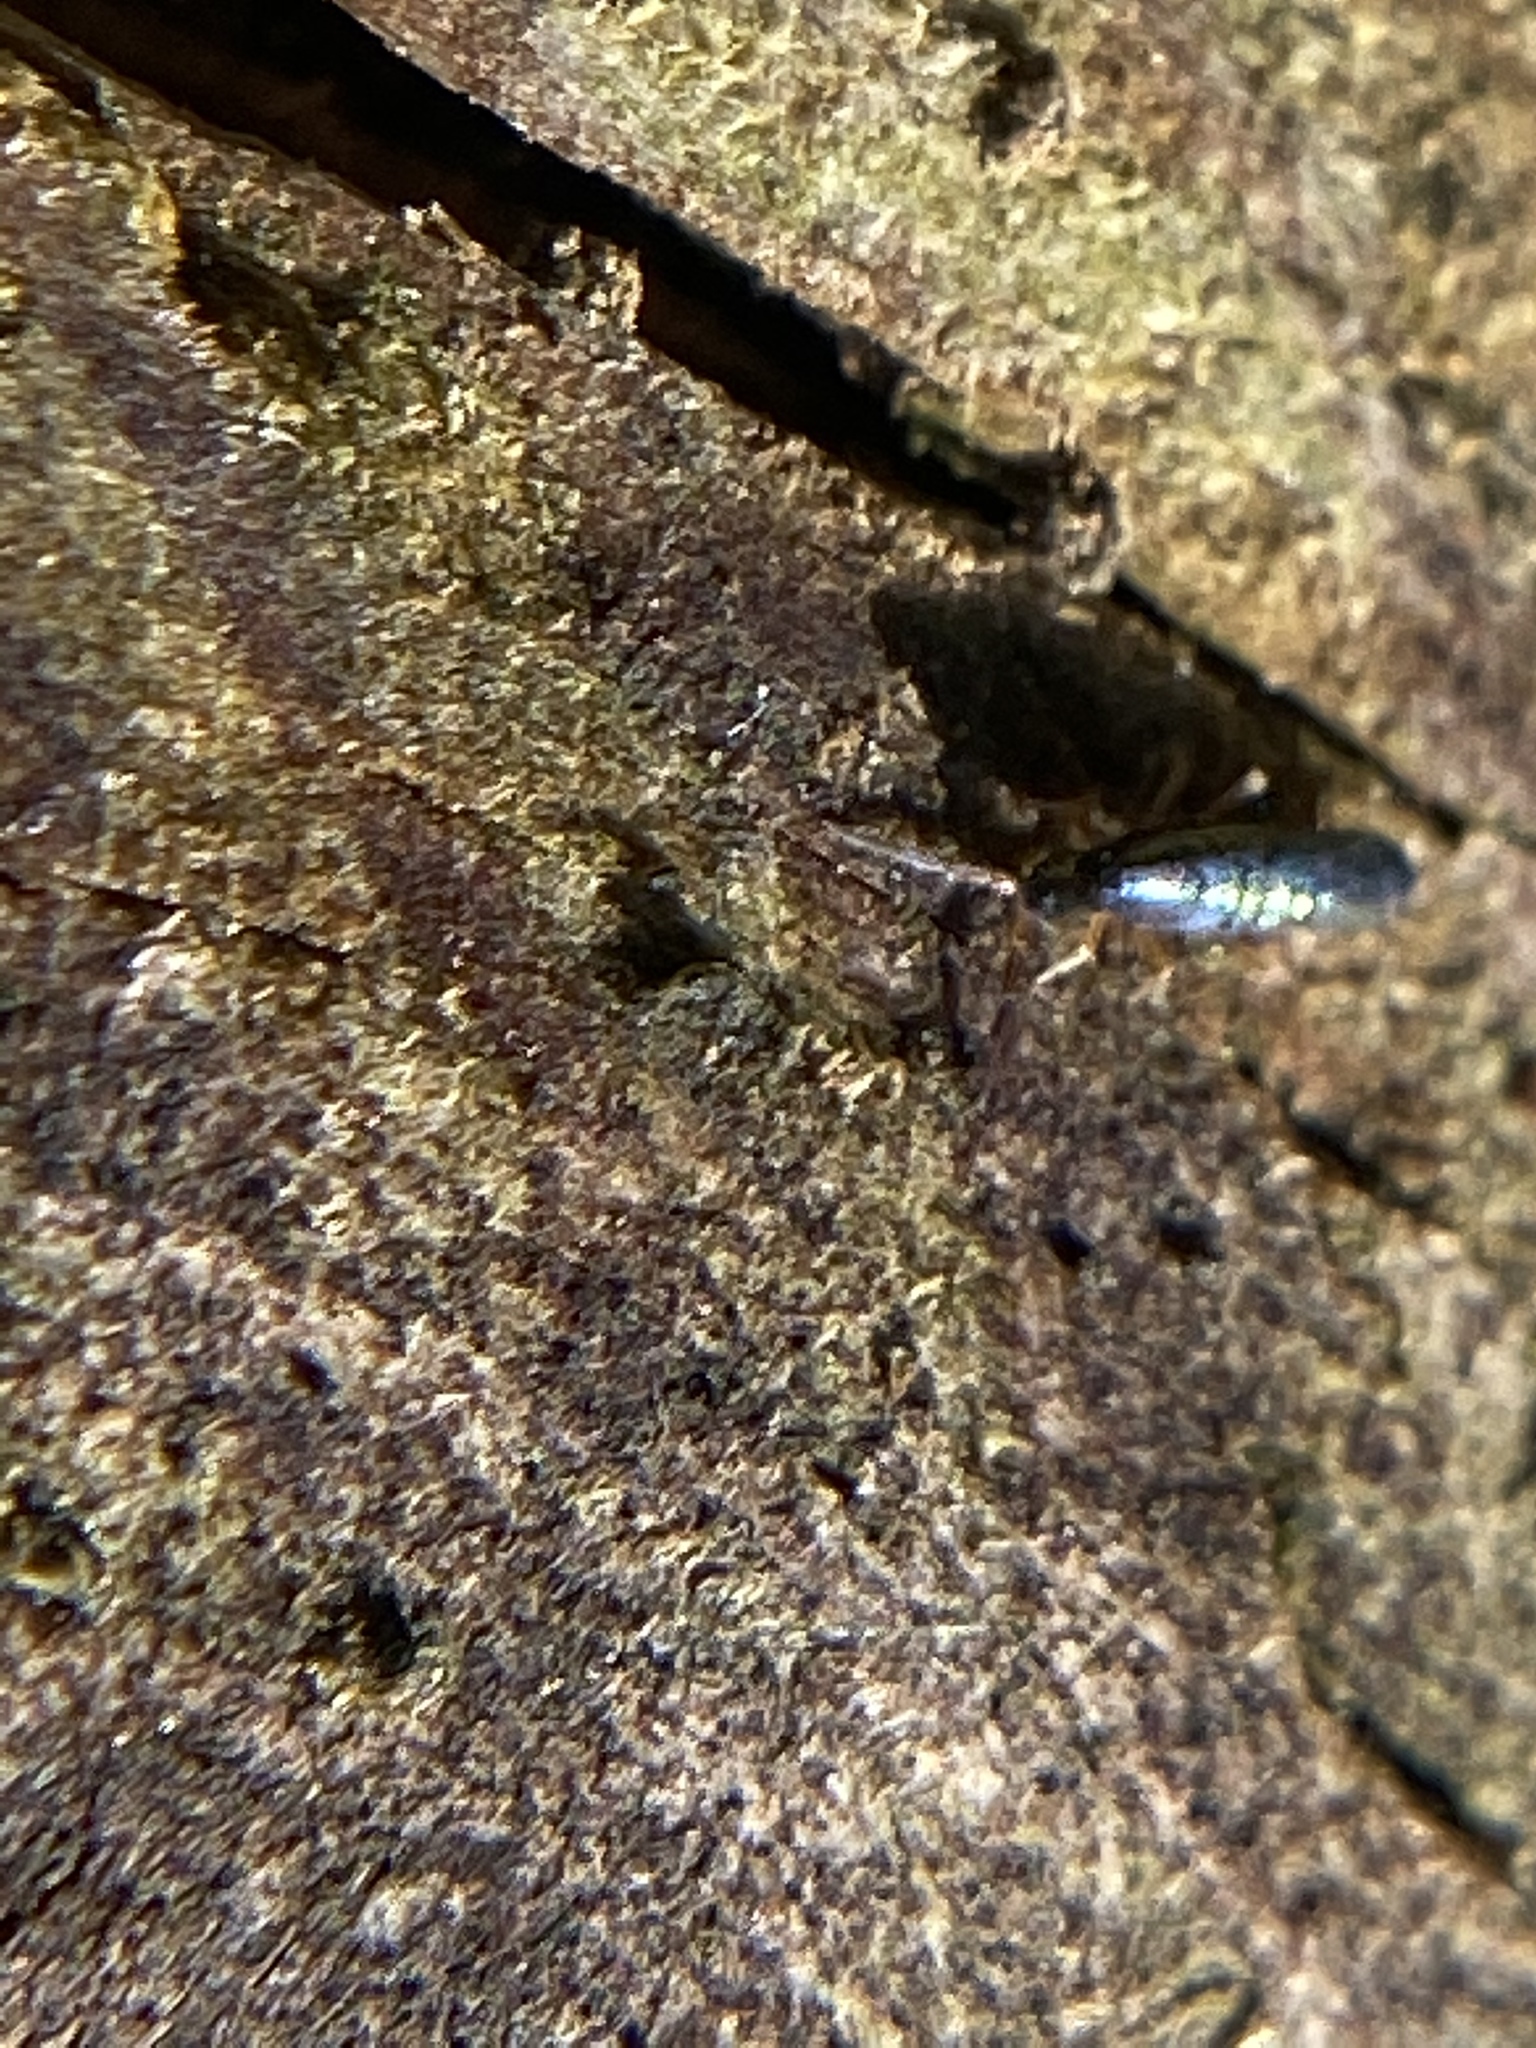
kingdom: Animalia
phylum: Arthropoda
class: Collembola
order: Entomobryomorpha
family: Entomobryidae
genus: Lepidocyrtus
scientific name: Lepidocyrtus paradoxus
